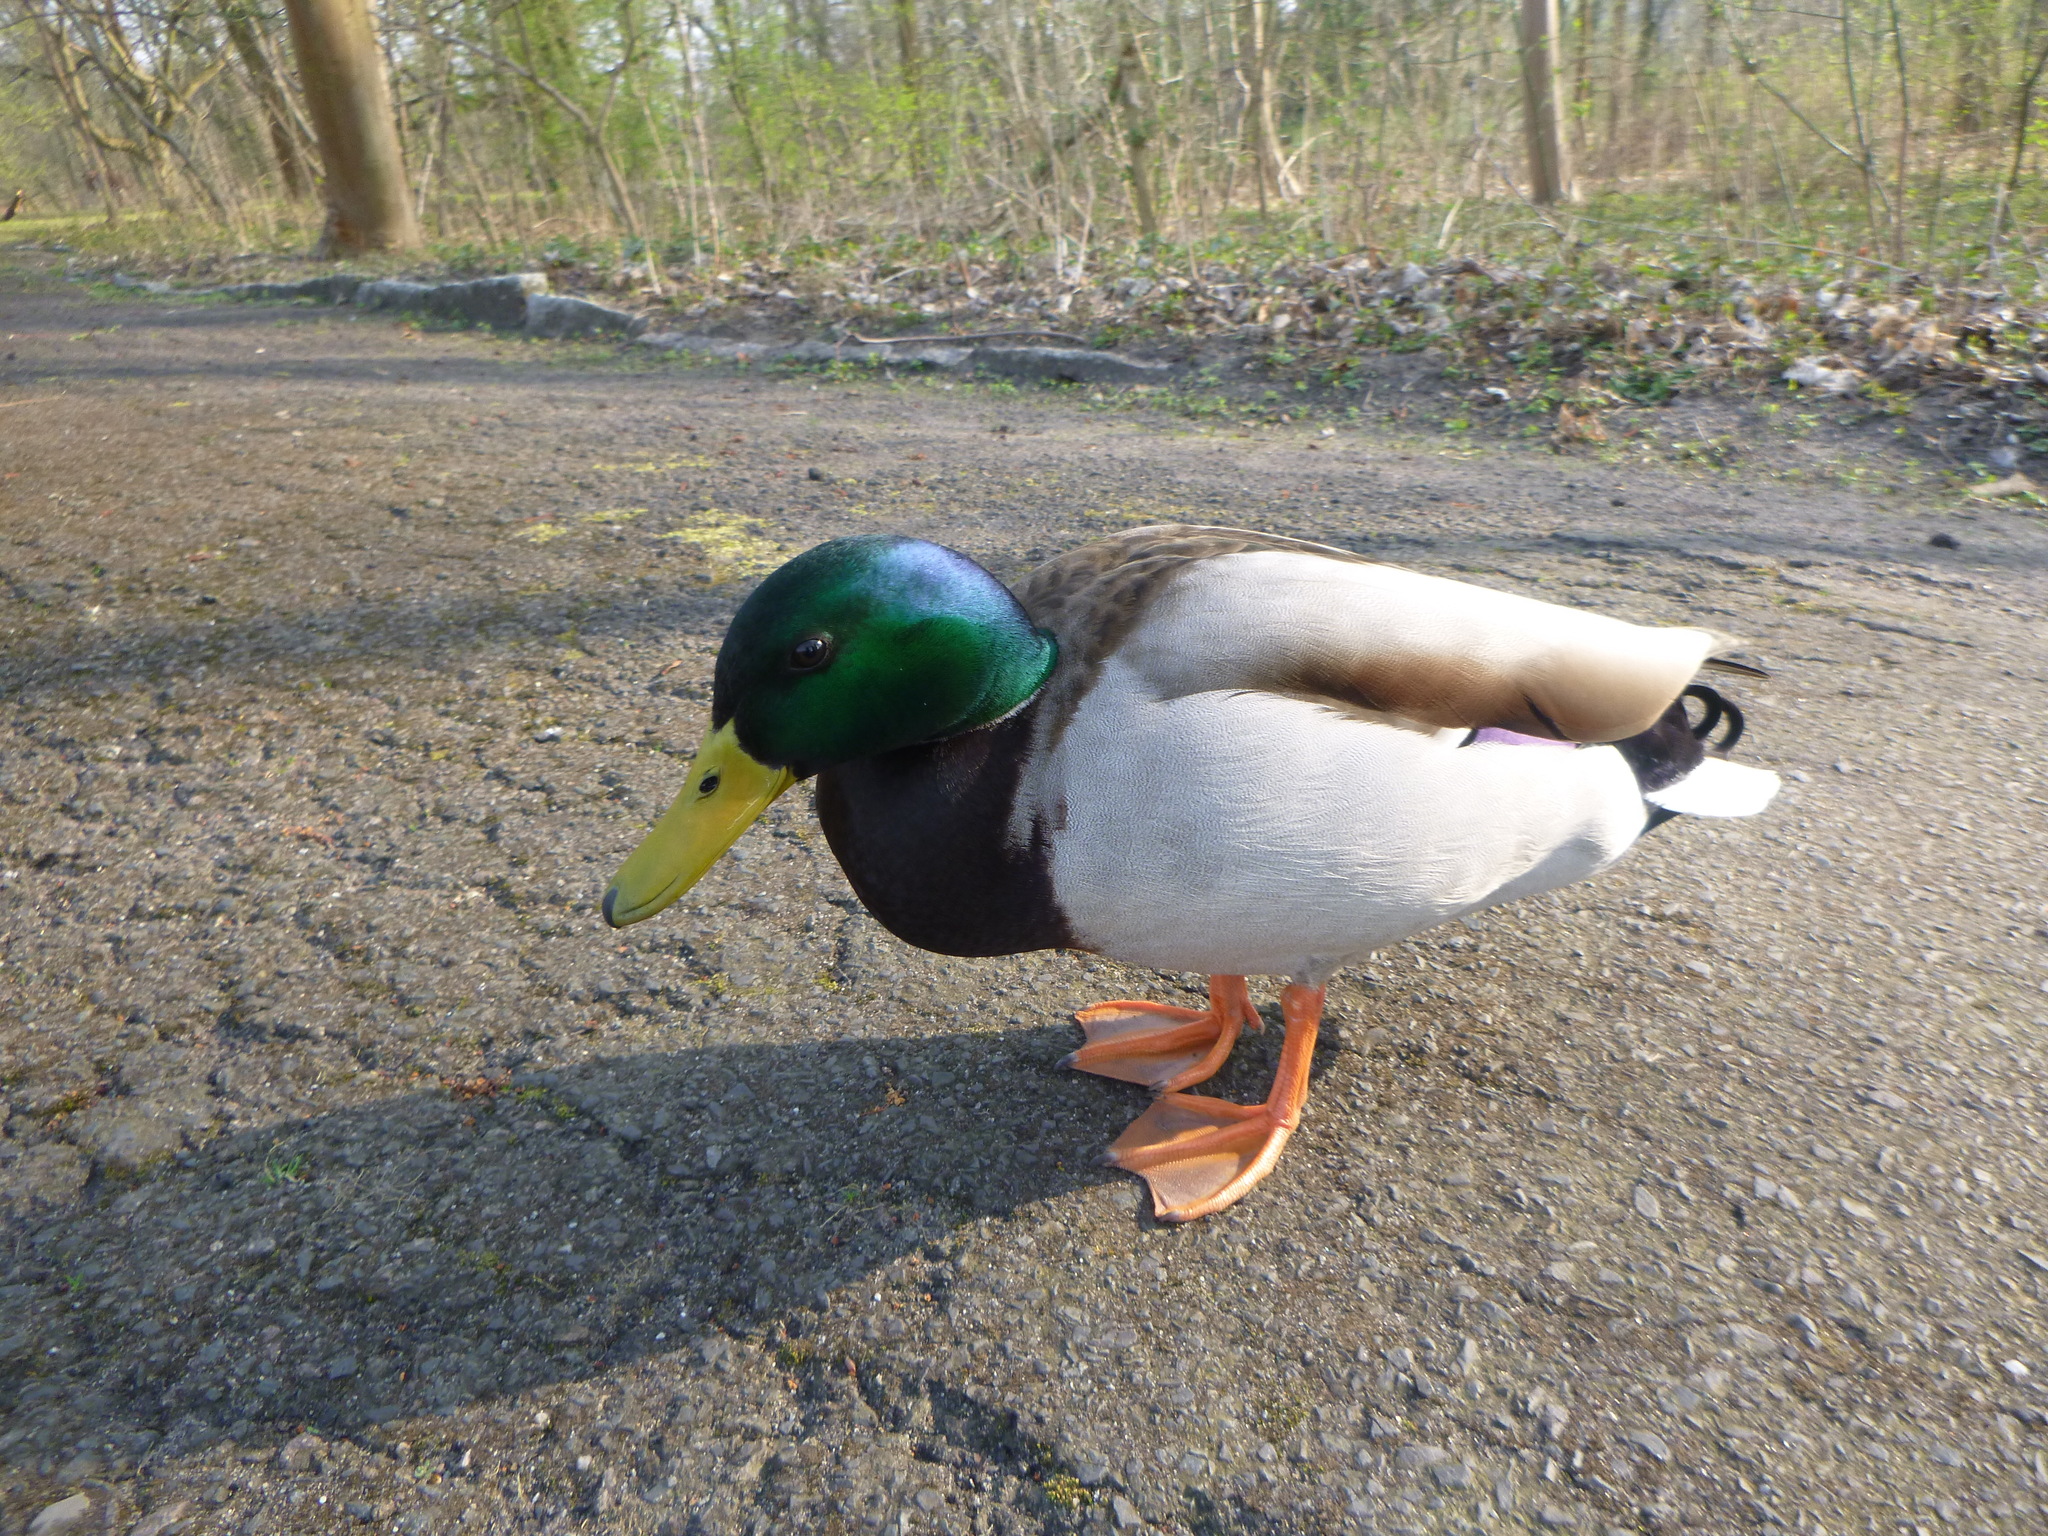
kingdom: Animalia
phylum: Chordata
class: Aves
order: Anseriformes
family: Anatidae
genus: Anas
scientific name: Anas platyrhynchos
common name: Mallard
